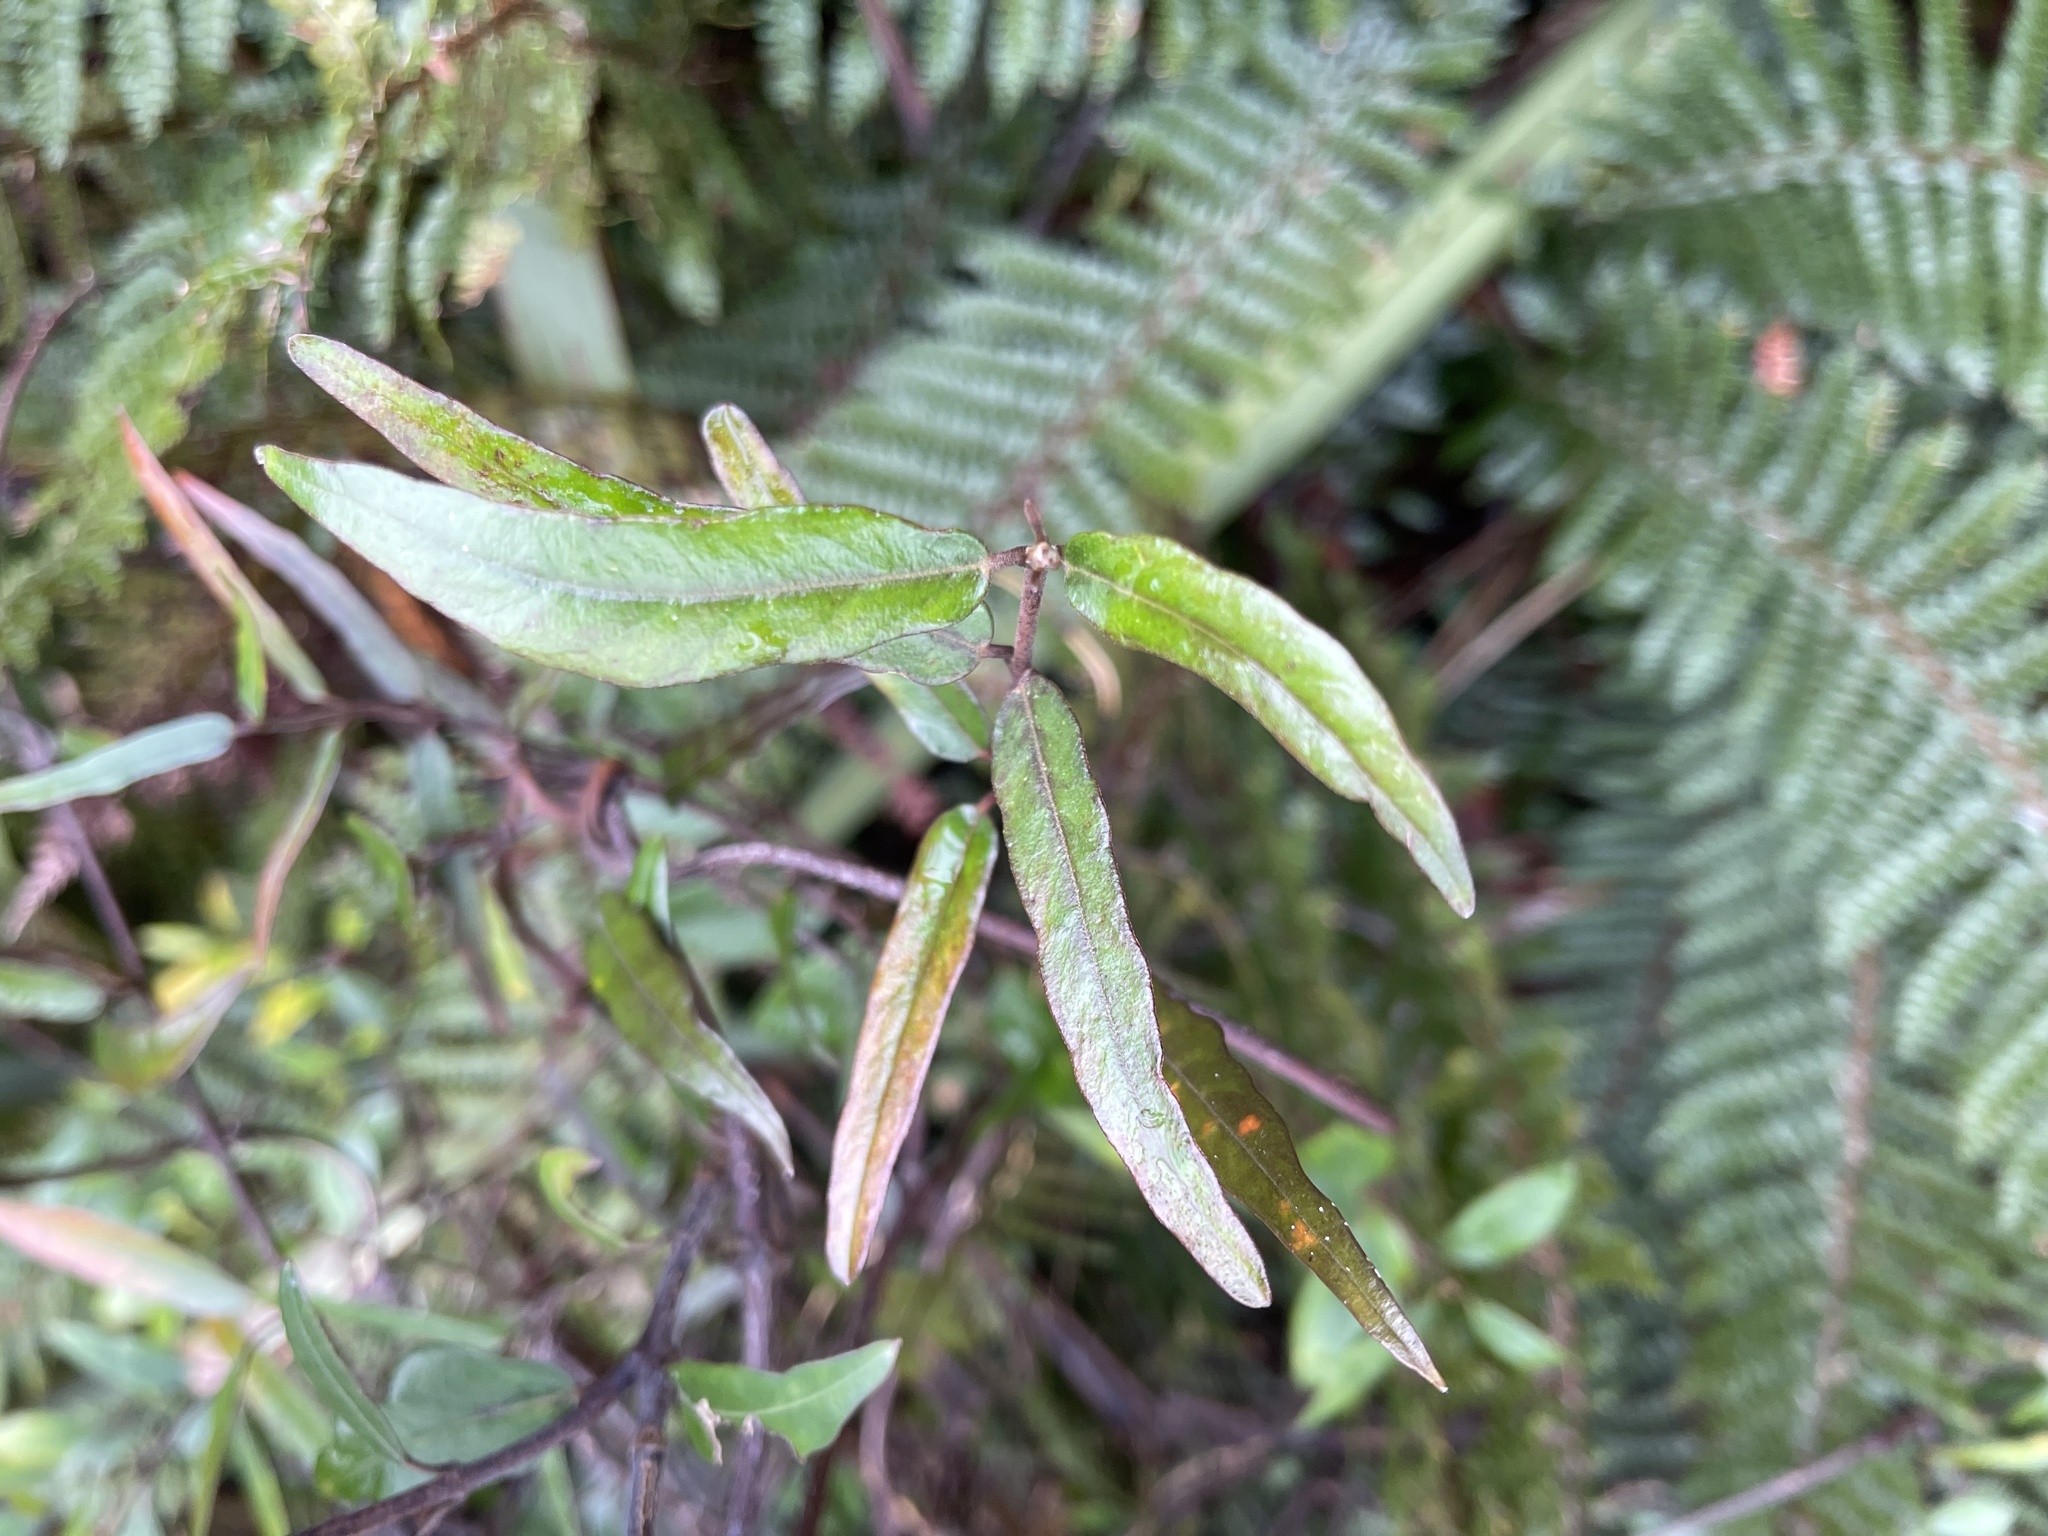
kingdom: Plantae
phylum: Tracheophyta
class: Magnoliopsida
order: Gentianales
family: Apocynaceae
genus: Parsonsia
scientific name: Parsonsia capsularis
